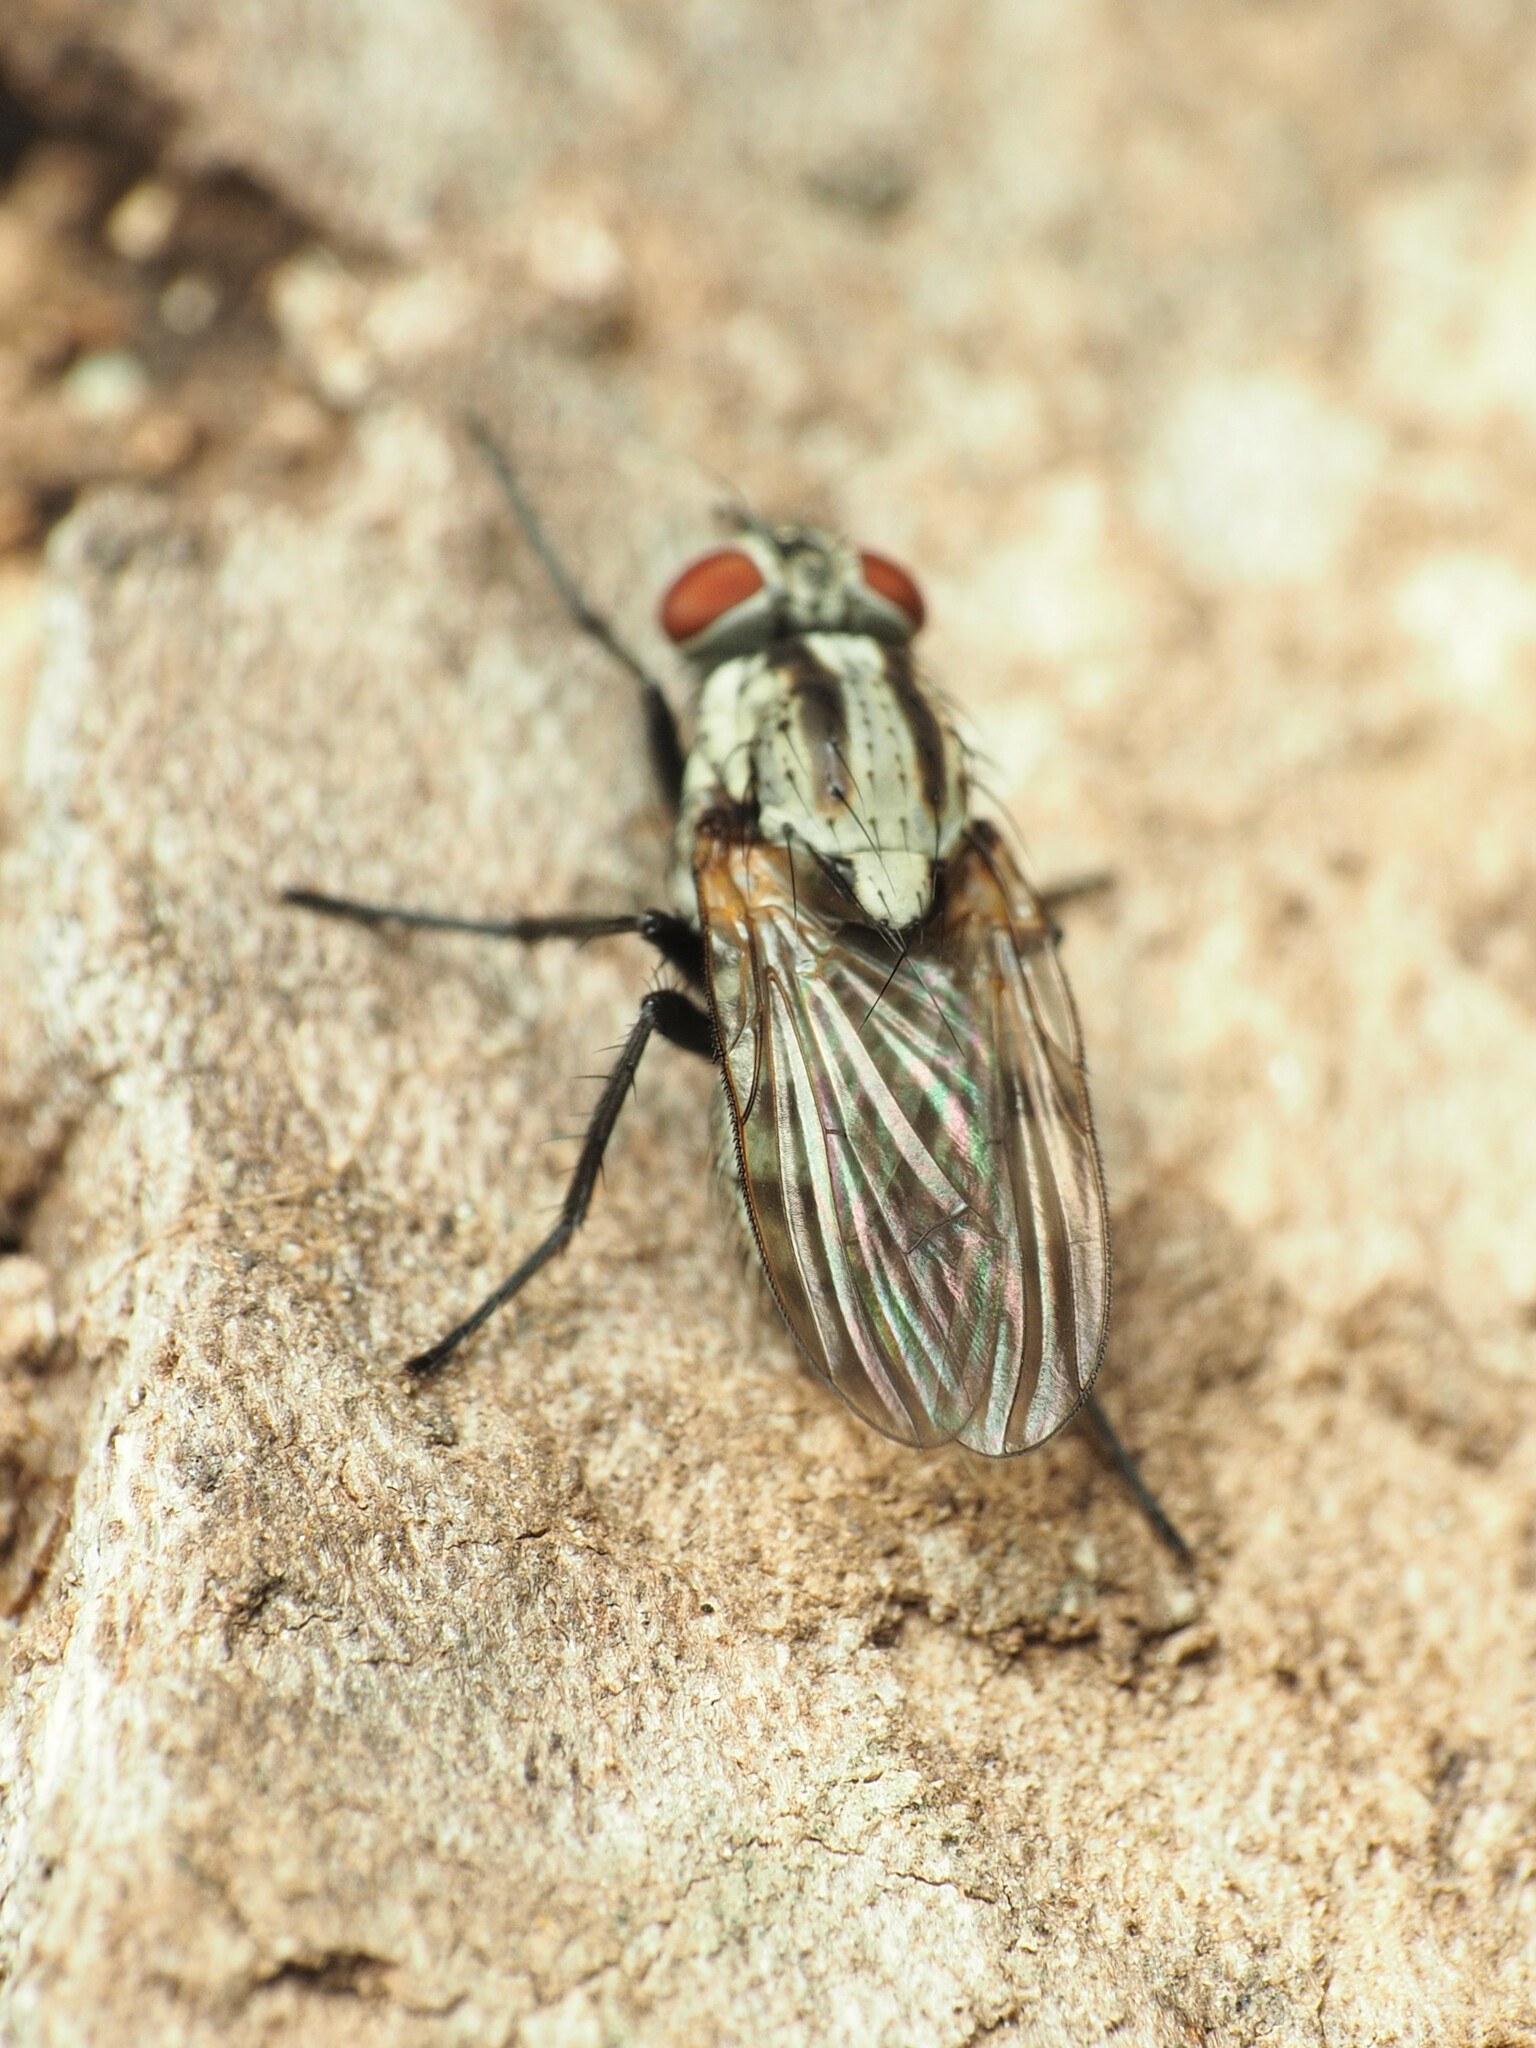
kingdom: Animalia
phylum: Arthropoda
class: Insecta
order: Diptera
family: Anthomyiidae
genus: Anthomyia
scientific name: Anthomyia oculifera
